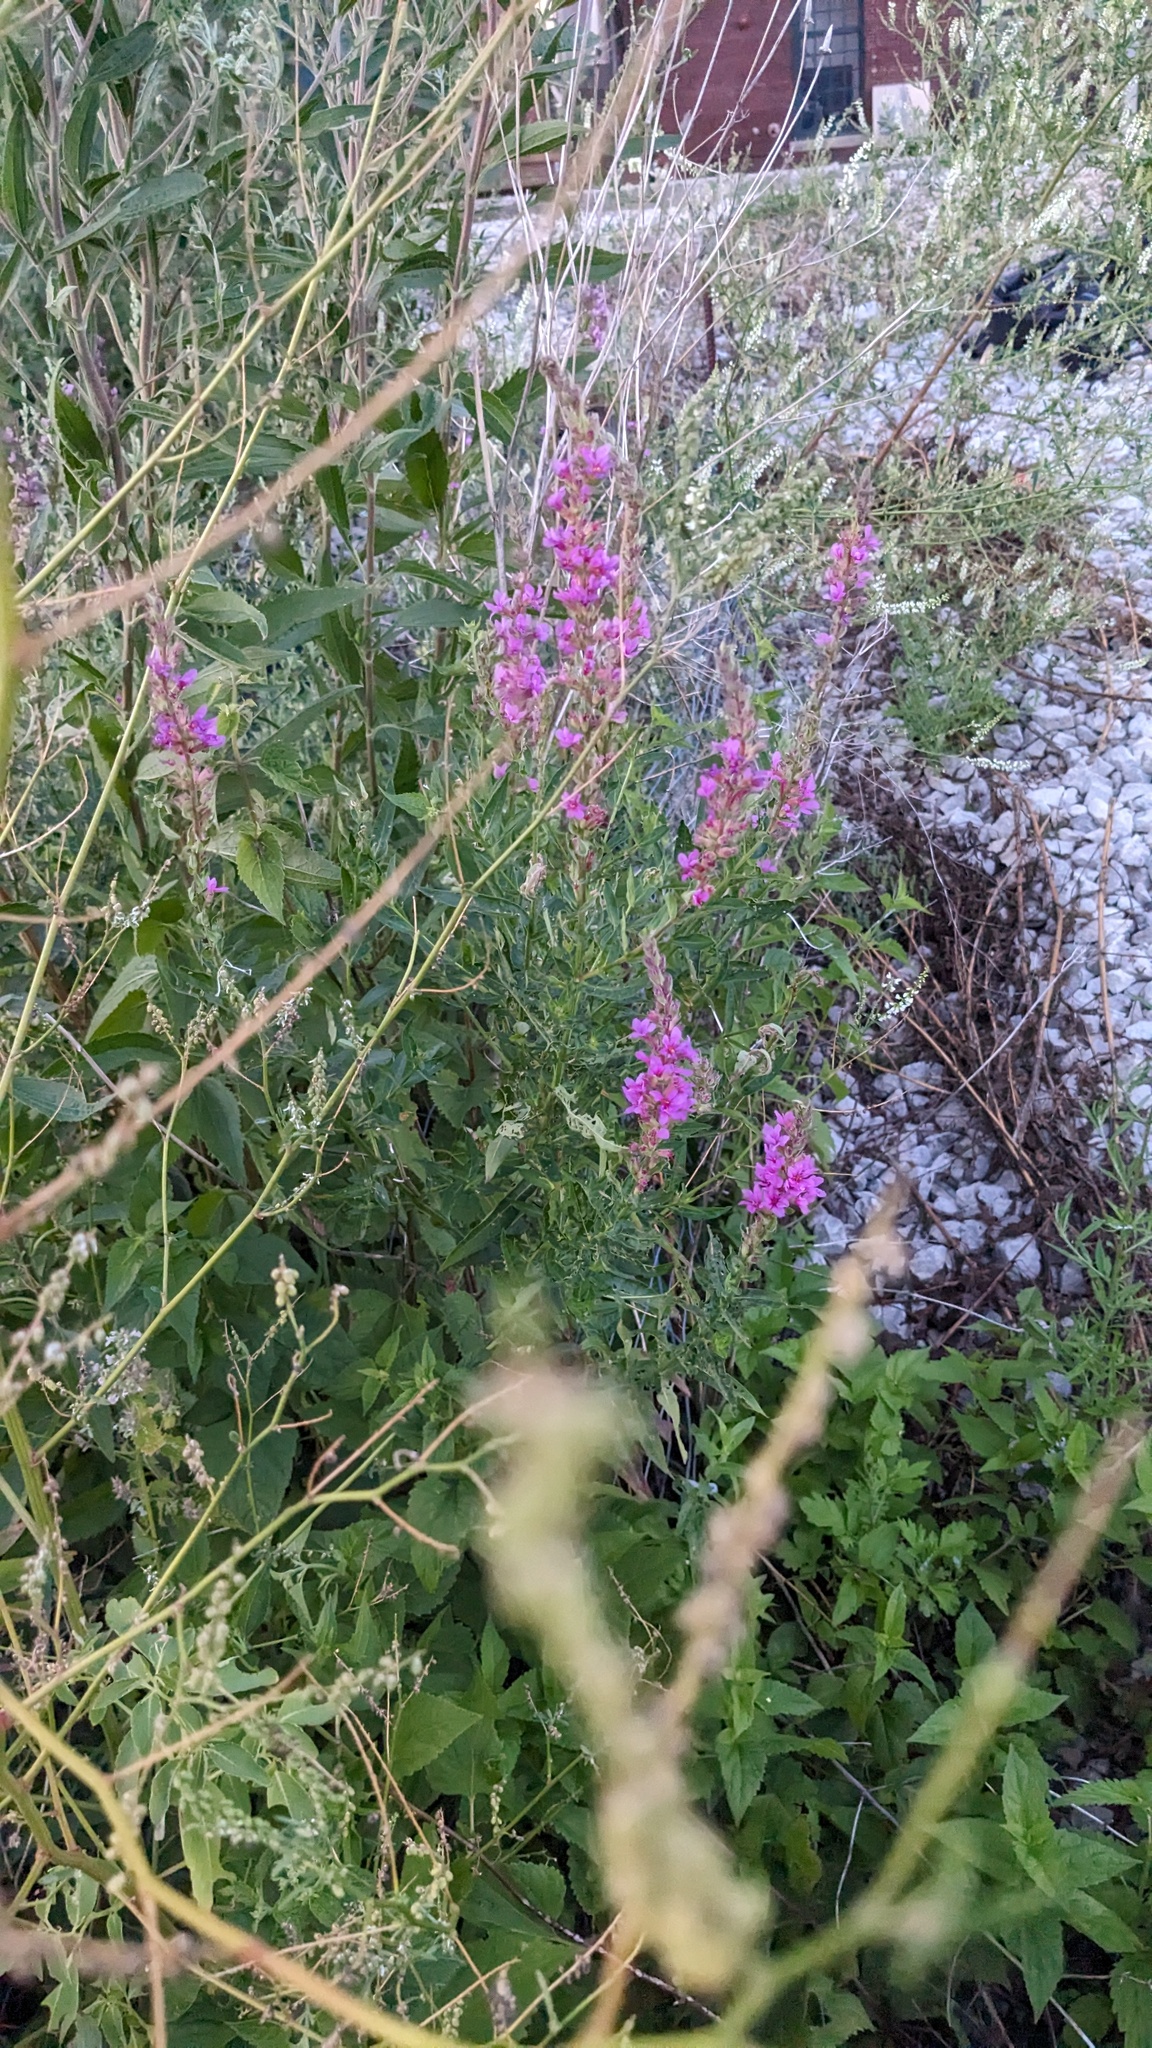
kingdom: Plantae
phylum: Tracheophyta
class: Magnoliopsida
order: Myrtales
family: Lythraceae
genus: Lythrum
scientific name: Lythrum salicaria
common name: Purple loosestrife
